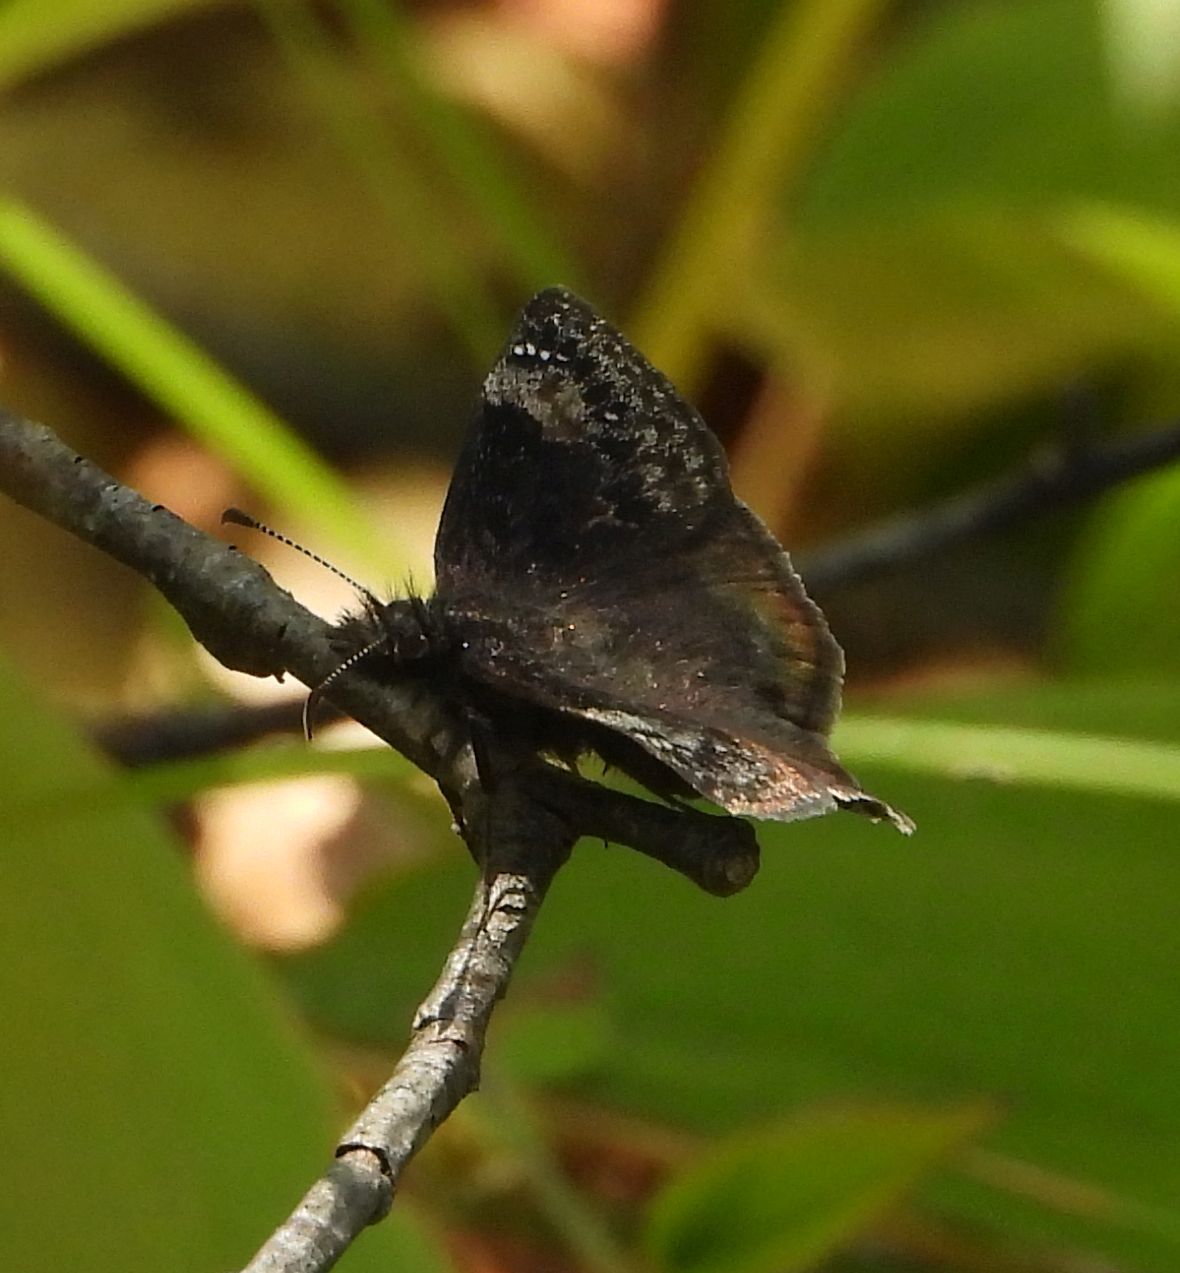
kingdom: Animalia
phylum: Arthropoda
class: Insecta
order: Lepidoptera
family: Hesperiidae
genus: Erynnis
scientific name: Erynnis lucilius
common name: Columbine duskywing
